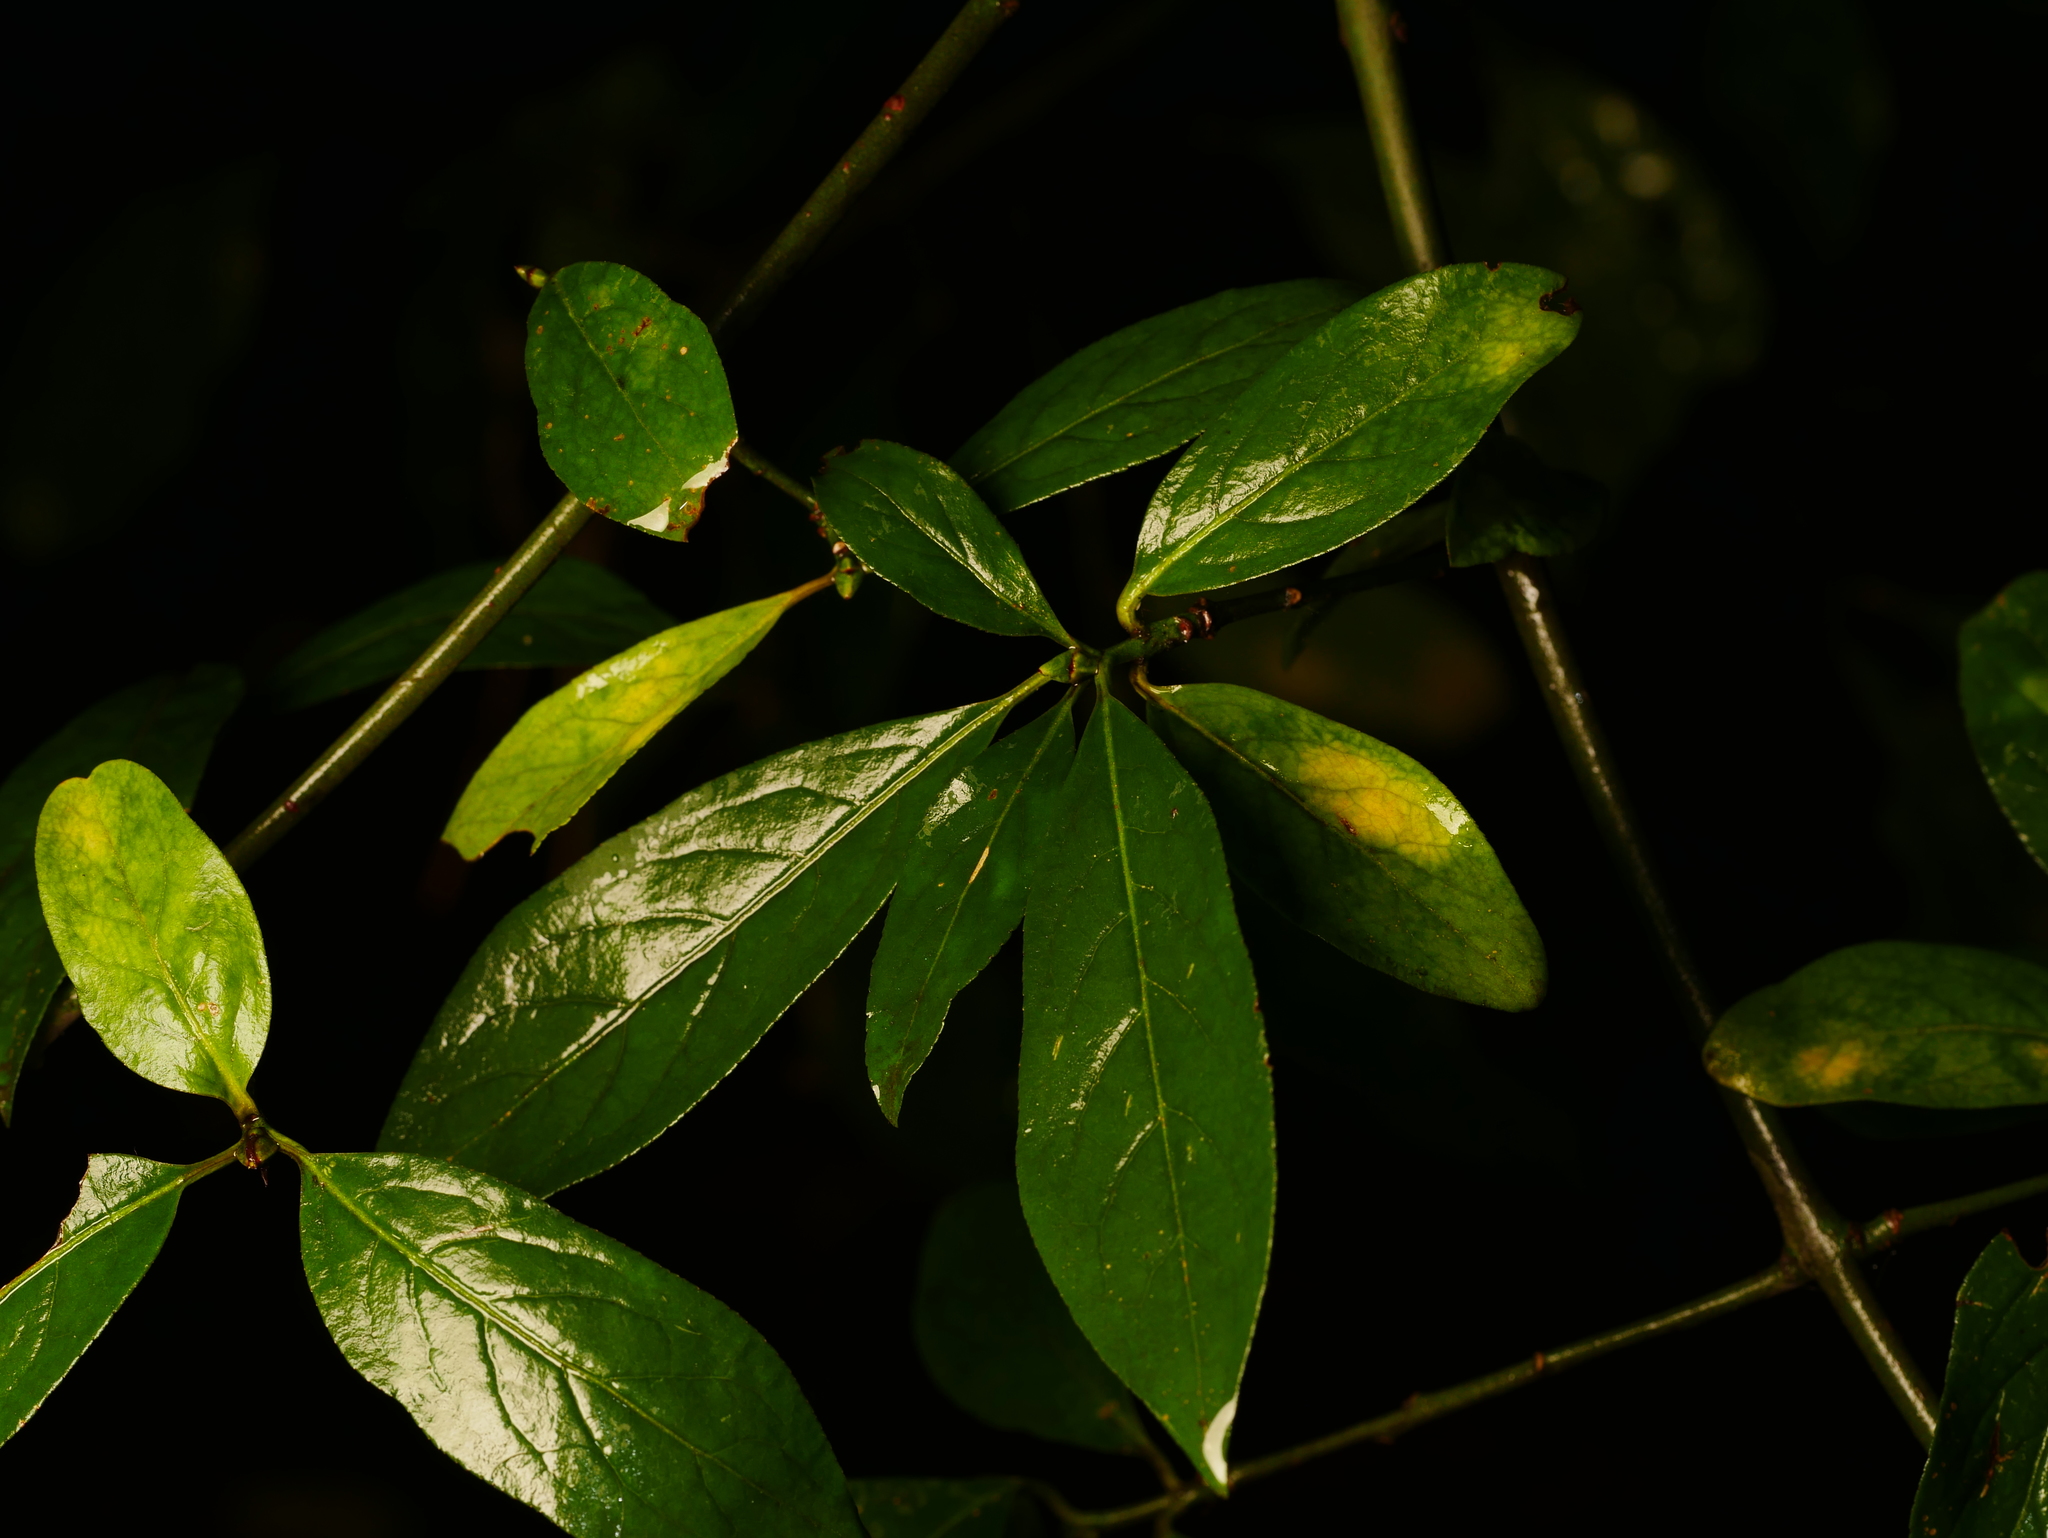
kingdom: Plantae
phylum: Tracheophyta
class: Magnoliopsida
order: Lamiales
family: Oleaceae
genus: Ligustrum
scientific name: Ligustrum vulgare
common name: Wild privet
